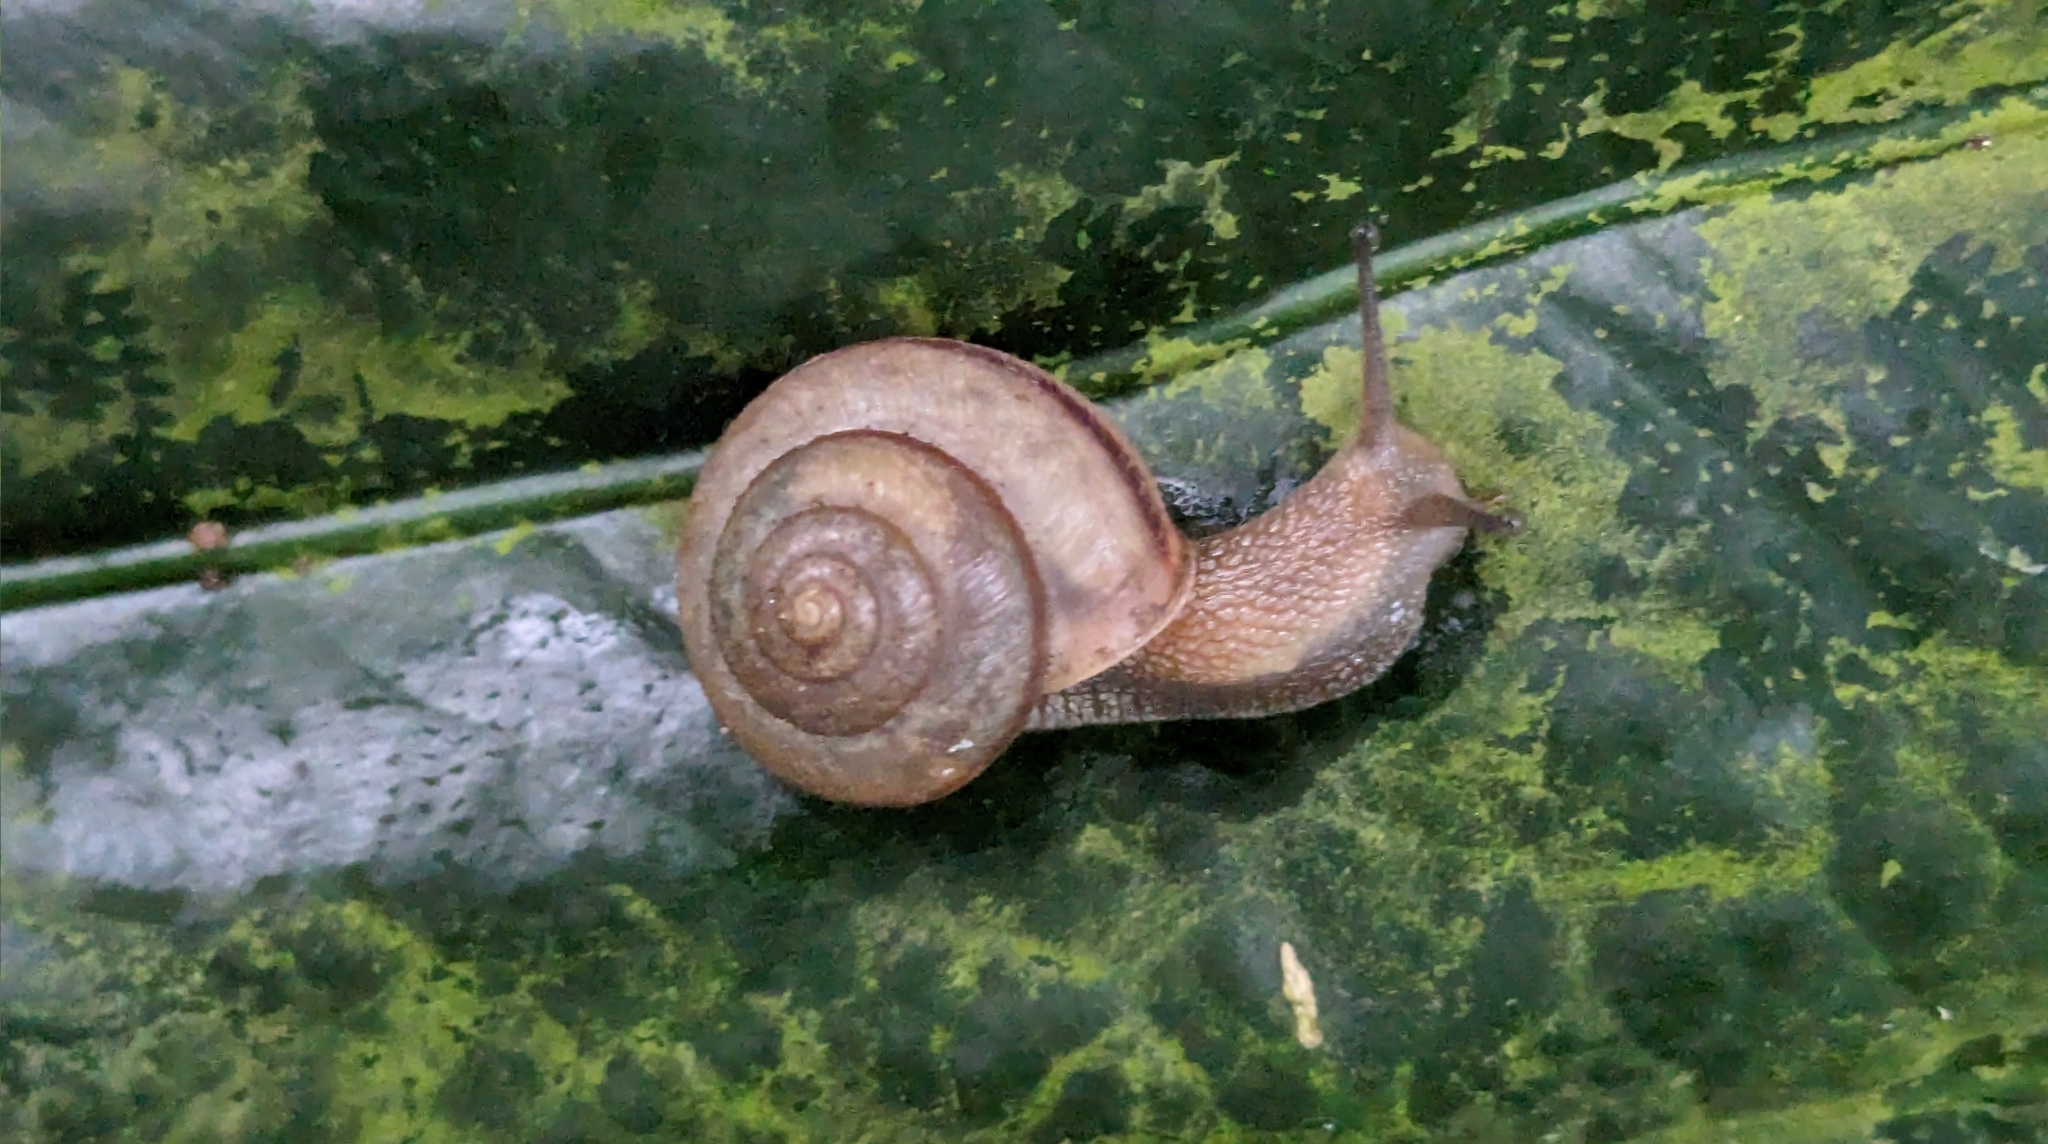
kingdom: Animalia
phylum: Mollusca
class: Gastropoda
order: Stylommatophora
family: Camaenidae
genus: Bradybaena
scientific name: Bradybaena similaris
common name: Asian trampsnail
